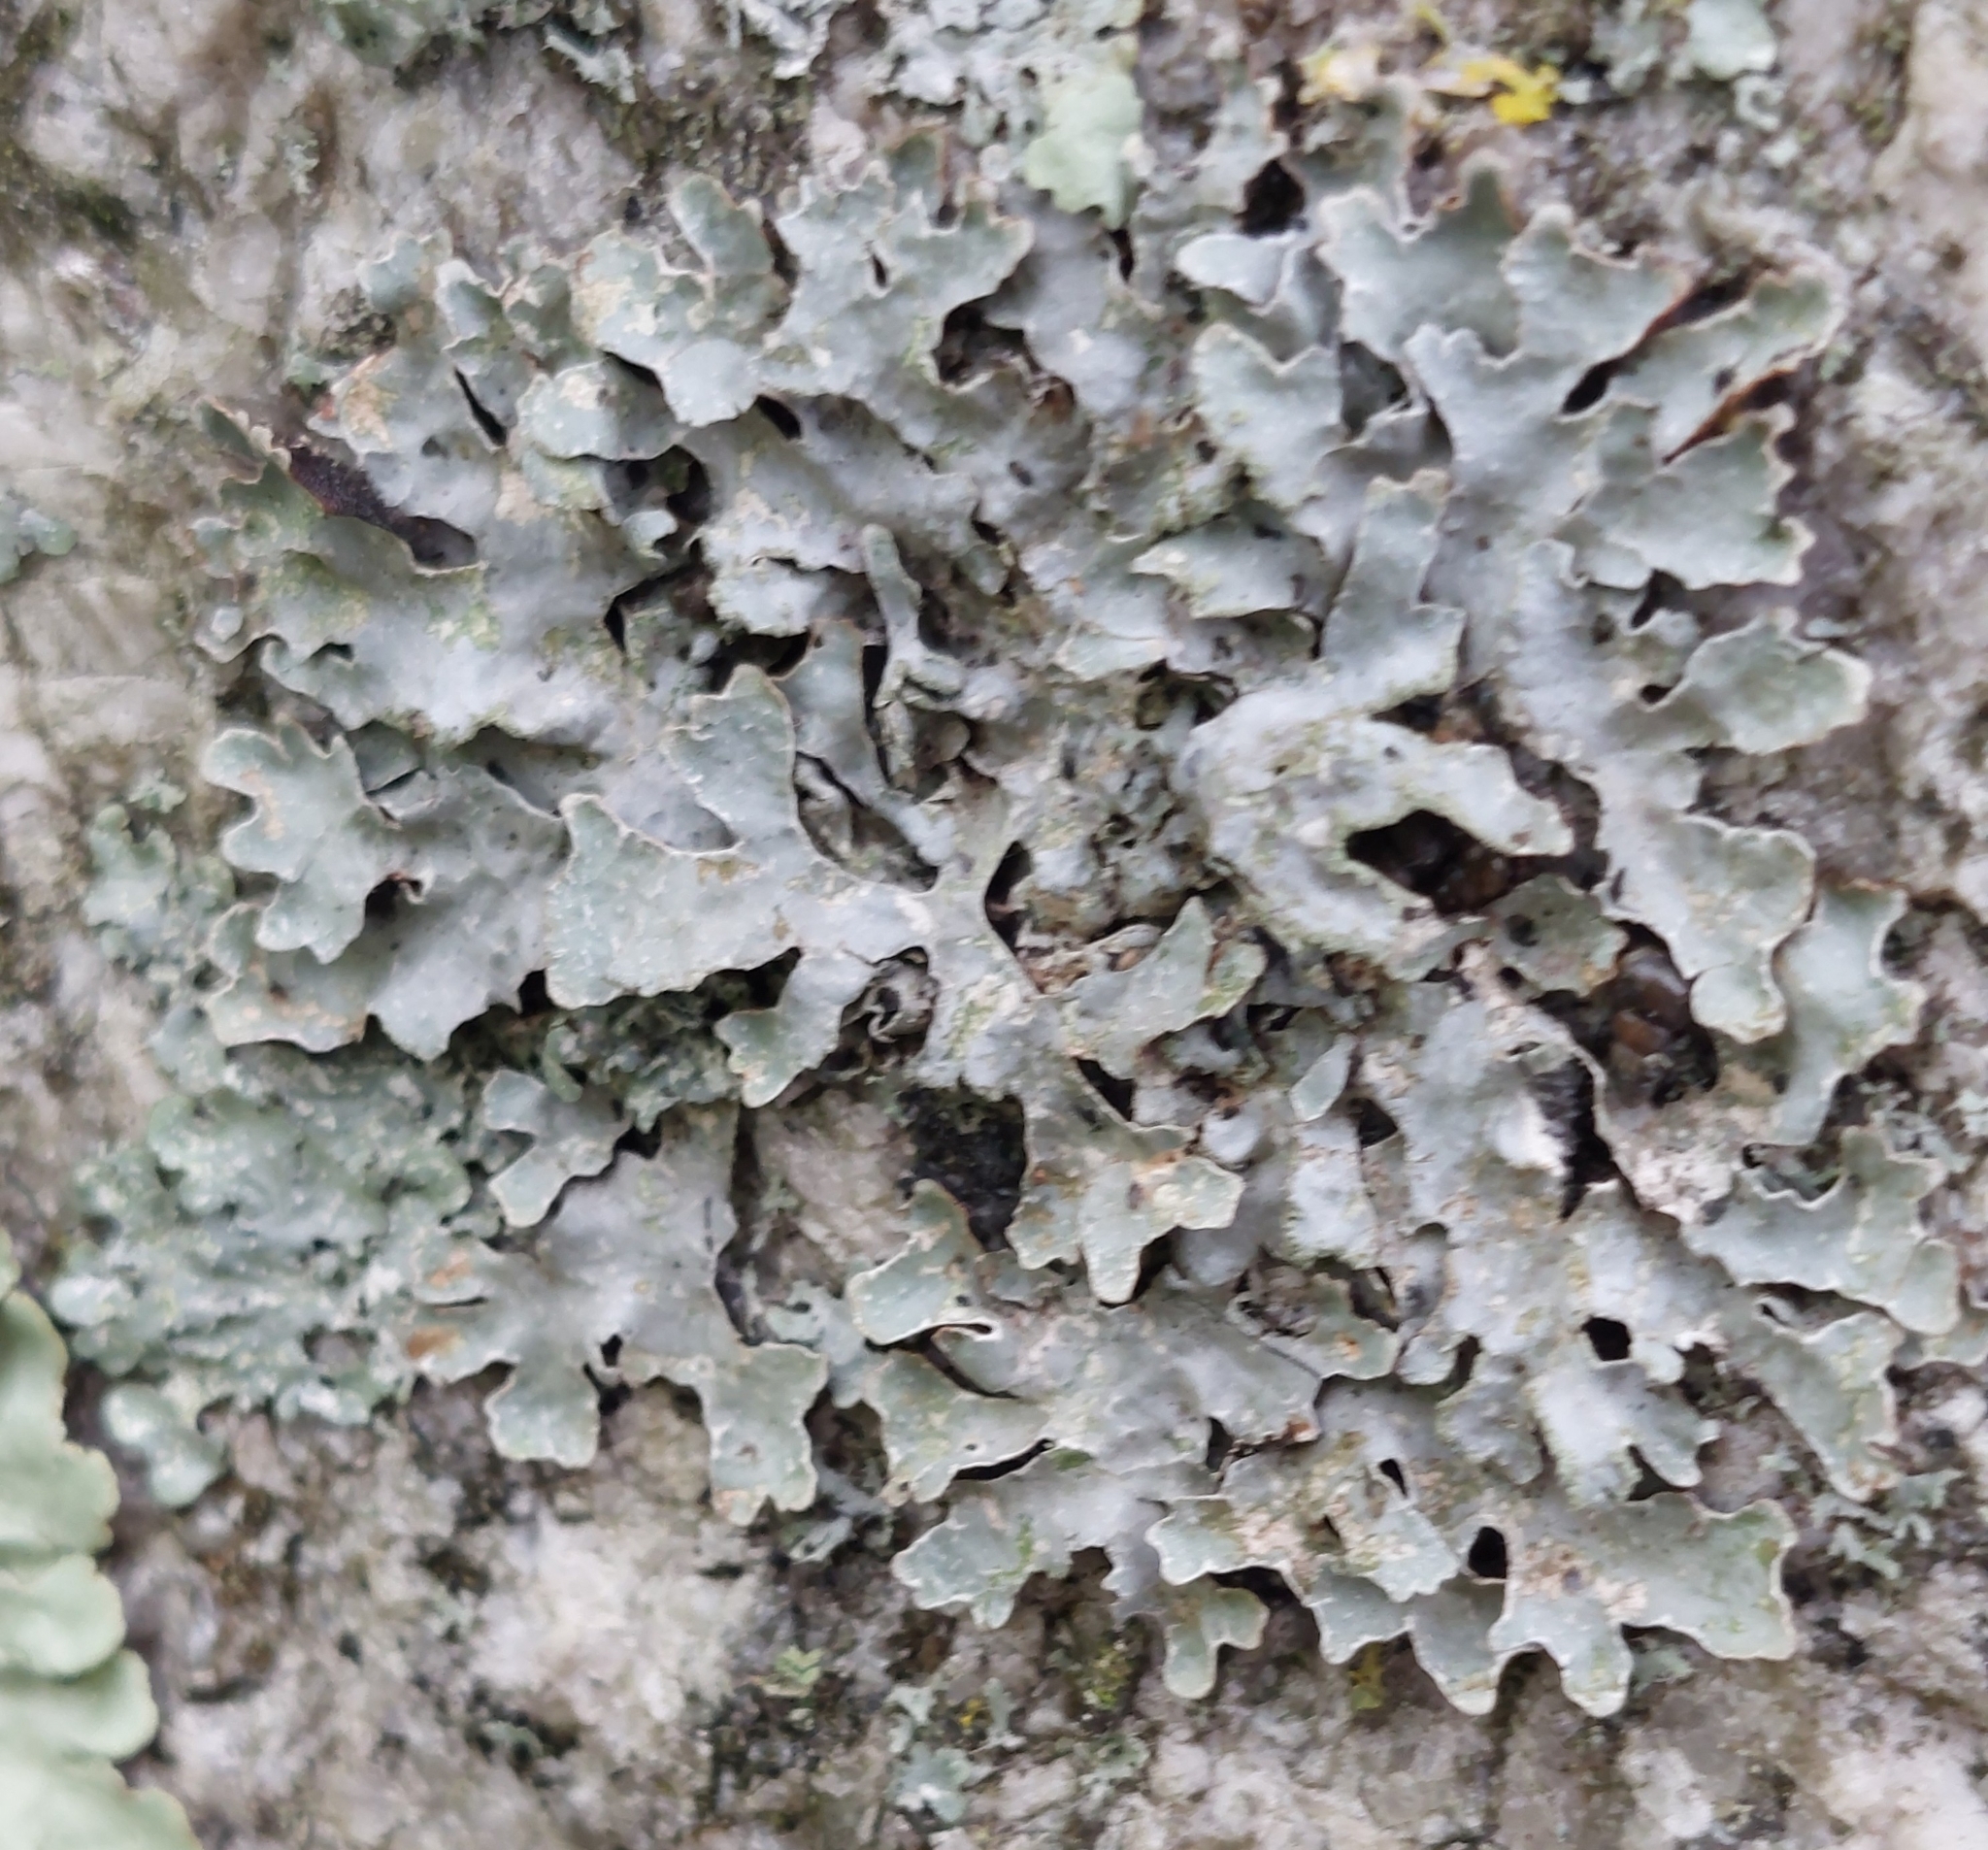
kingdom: Fungi
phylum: Ascomycota
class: Lecanoromycetes
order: Lecanorales
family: Parmeliaceae
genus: Parmelia
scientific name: Parmelia sulcata
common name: Netted shield lichen
